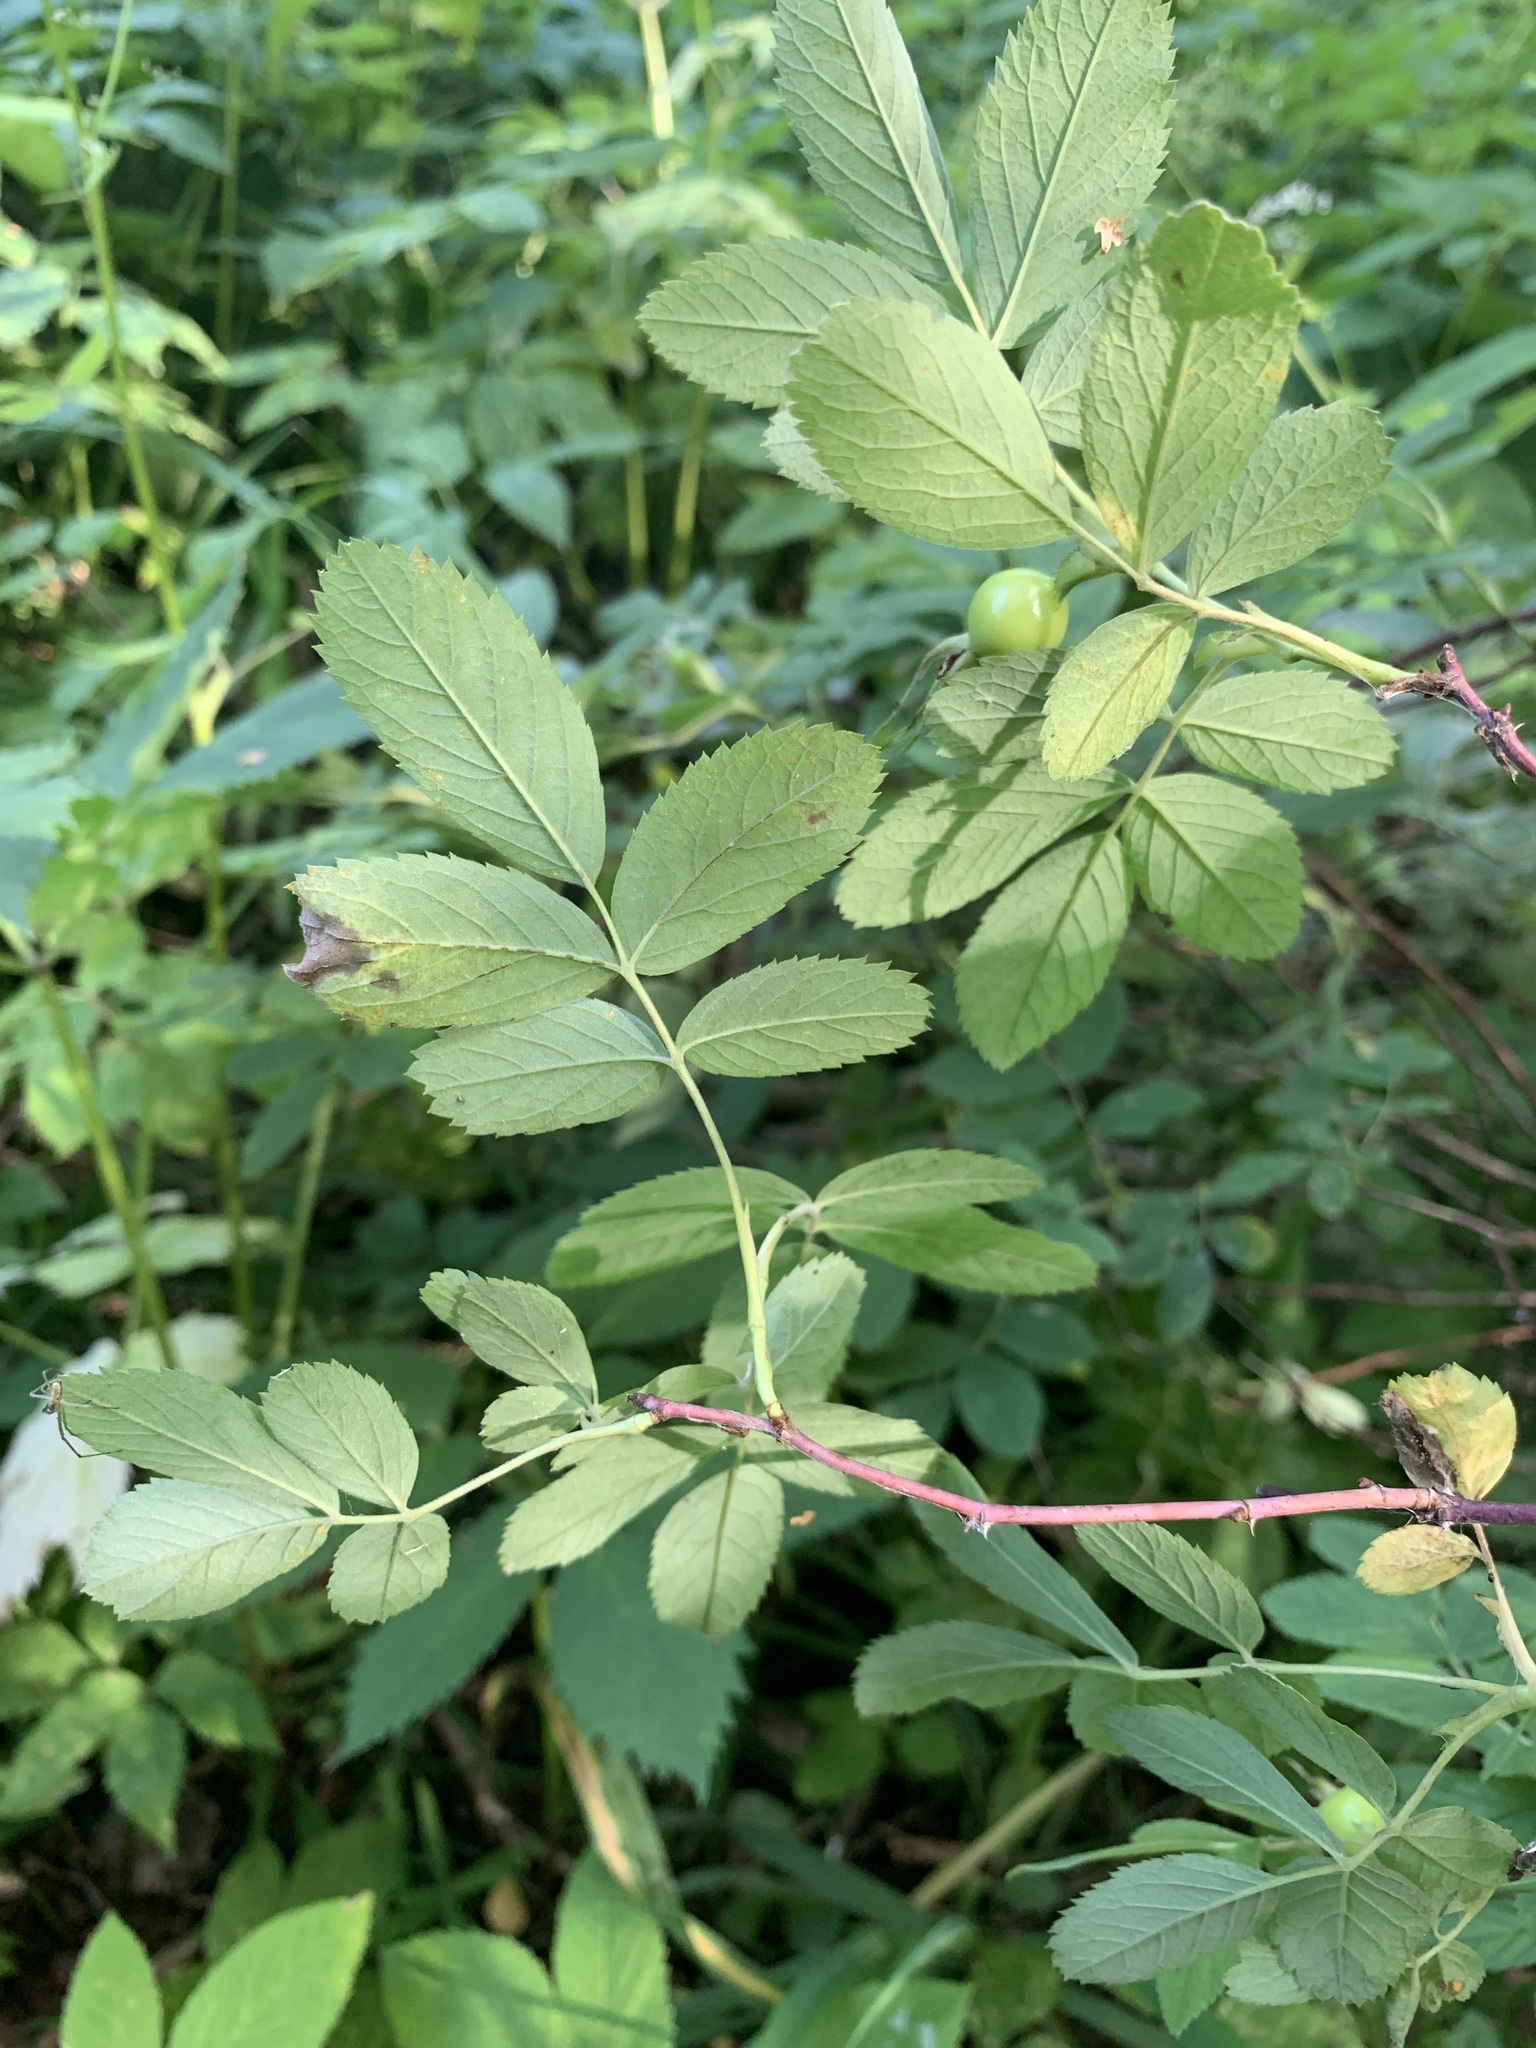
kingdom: Plantae
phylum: Tracheophyta
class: Magnoliopsida
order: Rosales
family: Rosaceae
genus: Rosa
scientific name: Rosa acicularis
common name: Prickly rose
